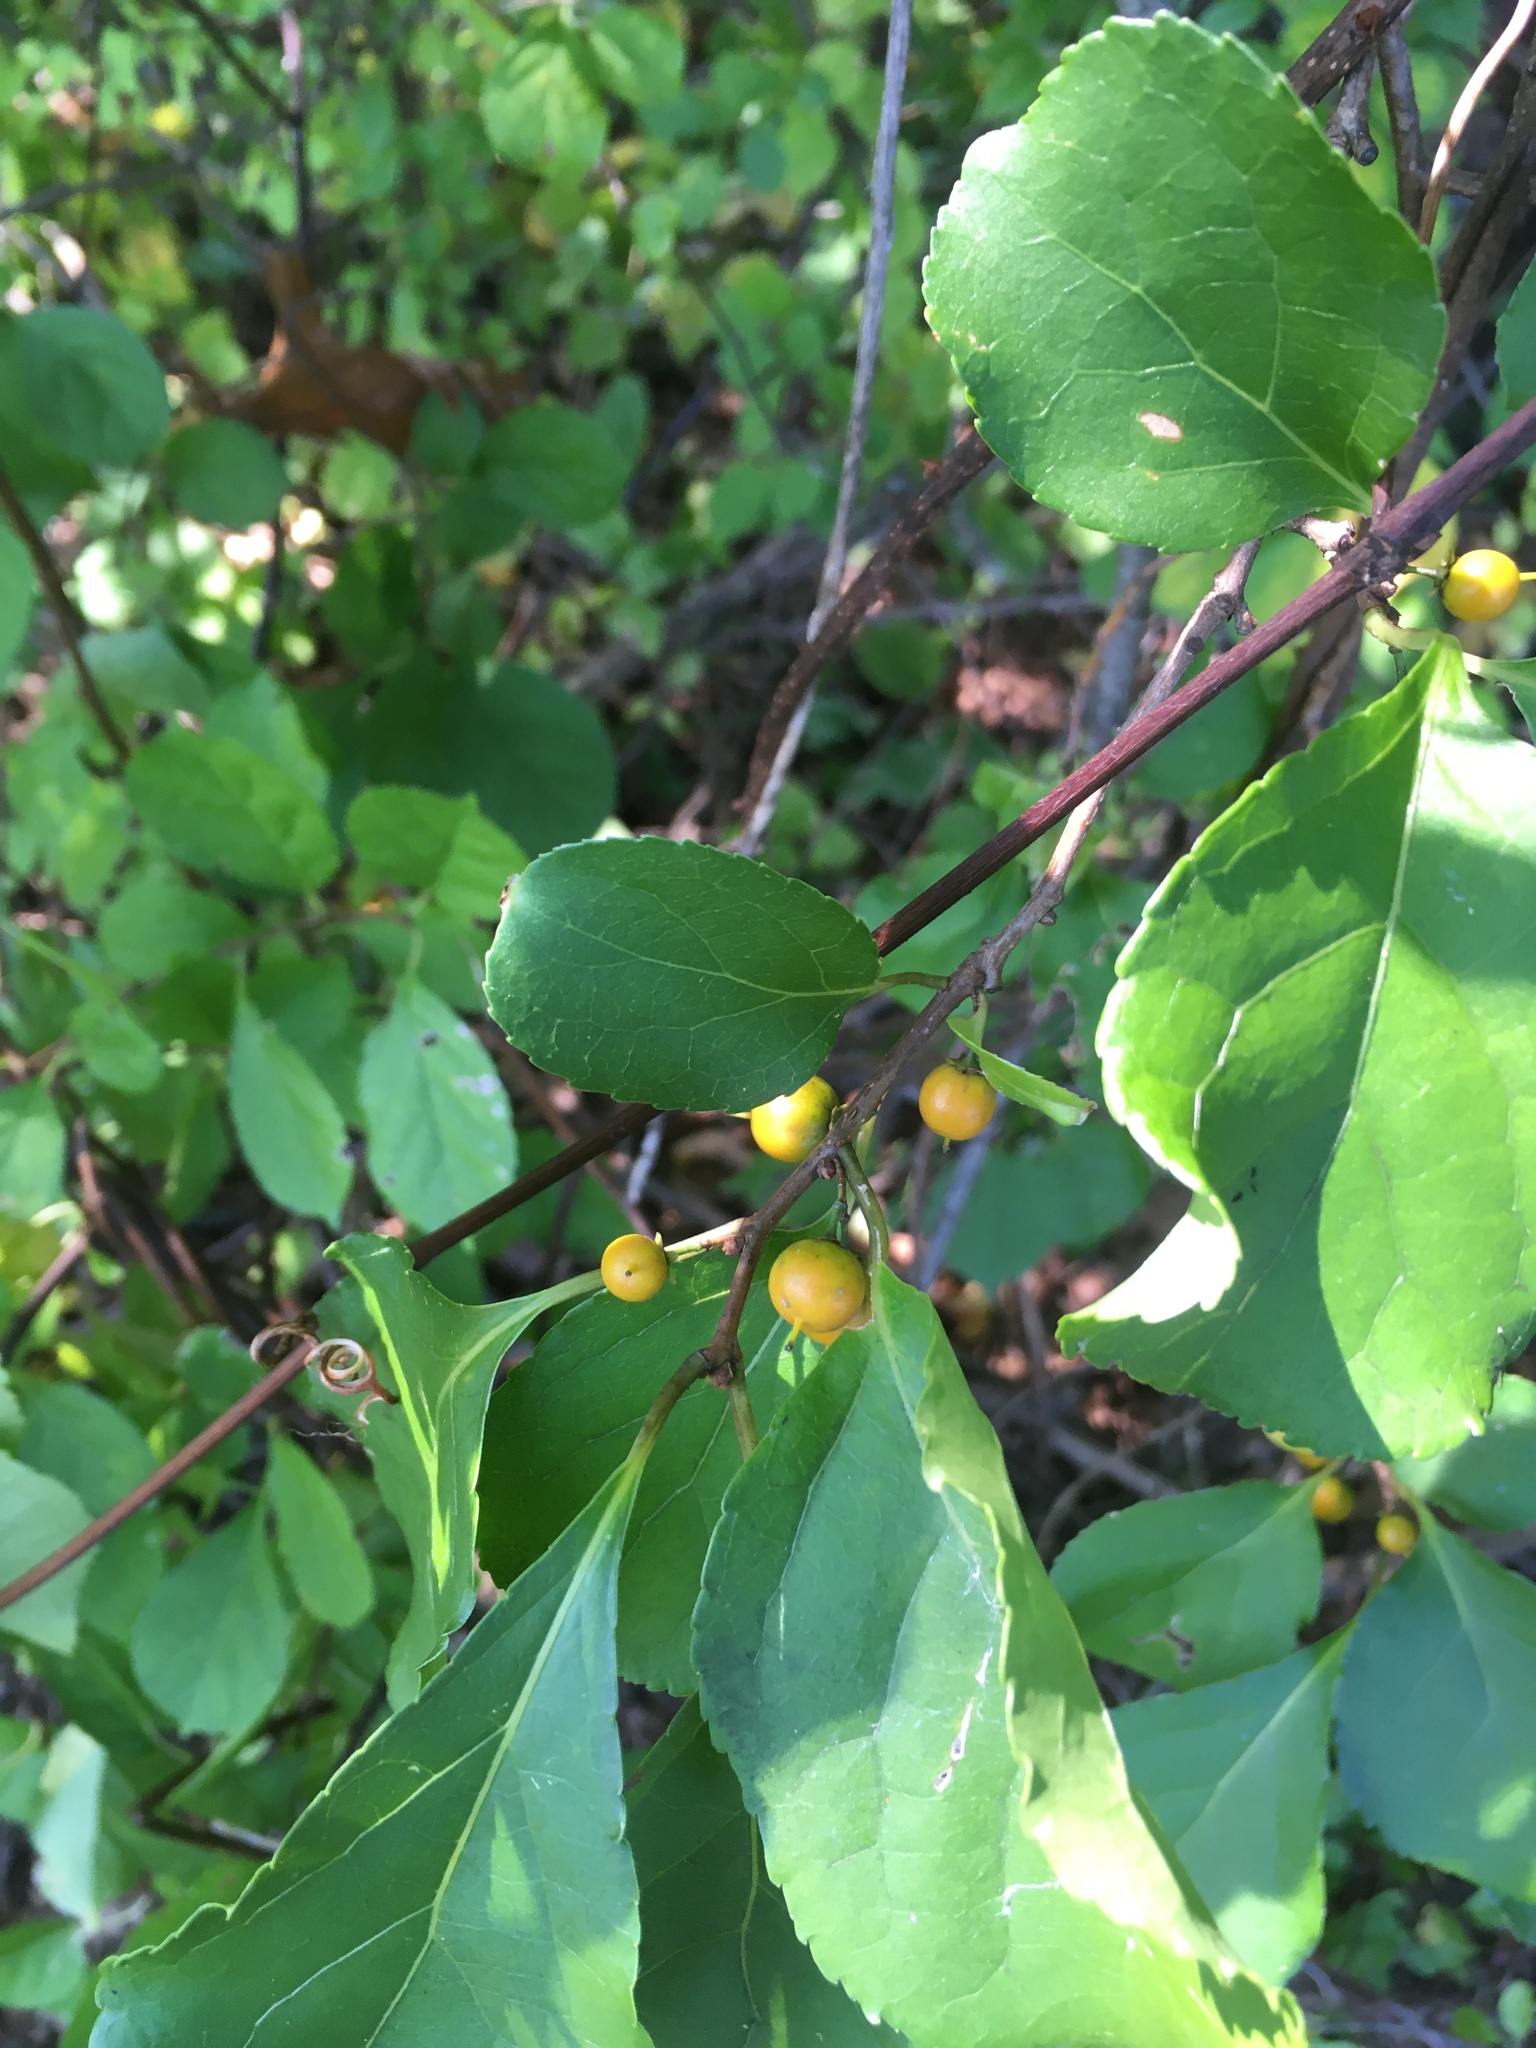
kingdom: Plantae
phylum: Tracheophyta
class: Magnoliopsida
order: Celastrales
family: Celastraceae
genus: Celastrus
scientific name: Celastrus orbiculatus
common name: Oriental bittersweet
